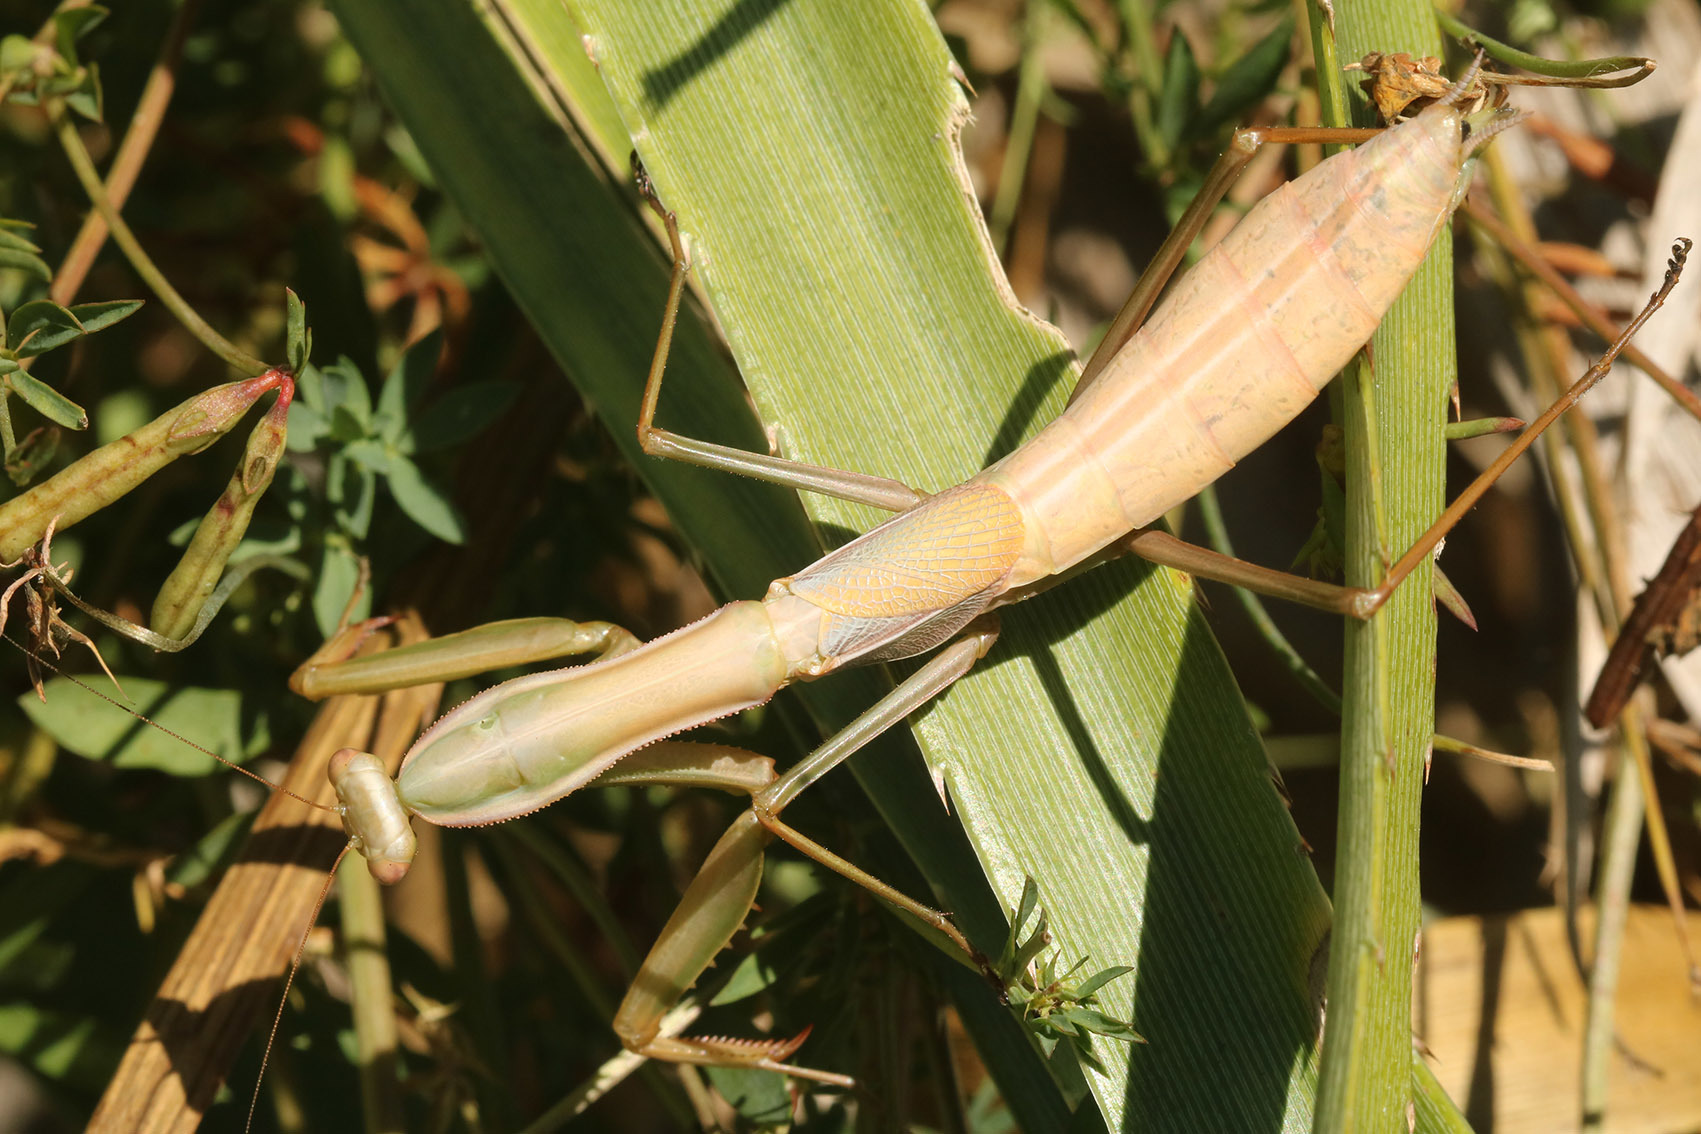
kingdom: Animalia
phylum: Arthropoda
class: Insecta
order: Mantodea
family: Coptopterygidae
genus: Coptopteryx
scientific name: Coptopteryx argentina
